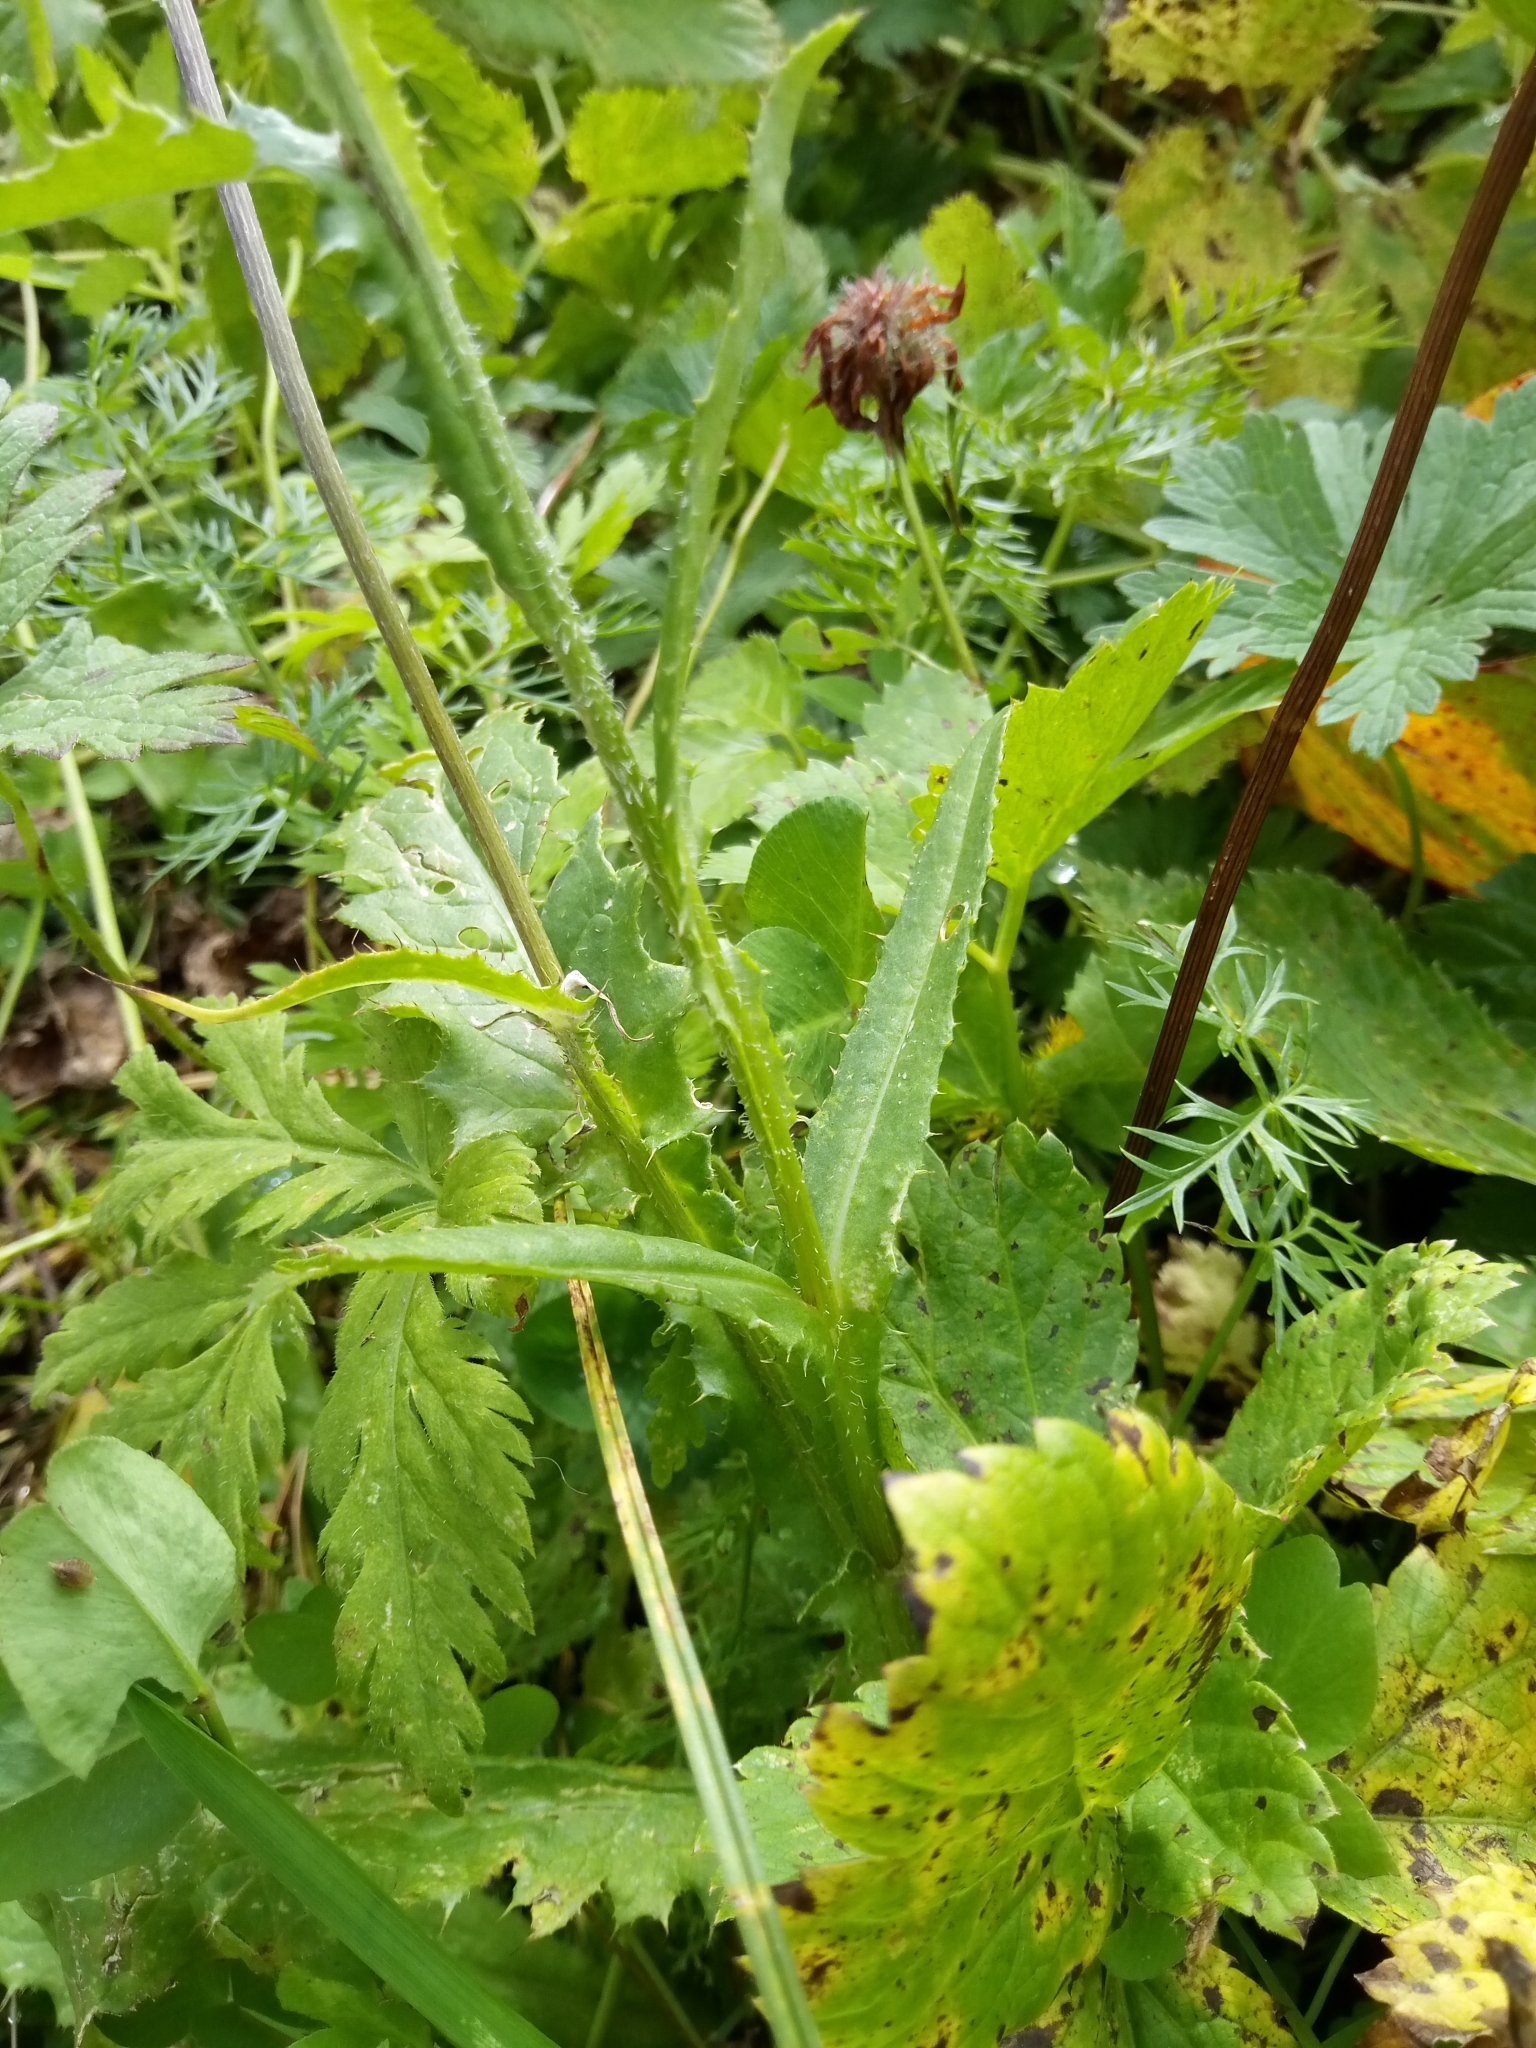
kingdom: Plantae
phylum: Tracheophyta
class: Magnoliopsida
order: Asterales
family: Asteraceae
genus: Carduus
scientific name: Carduus defloratus
